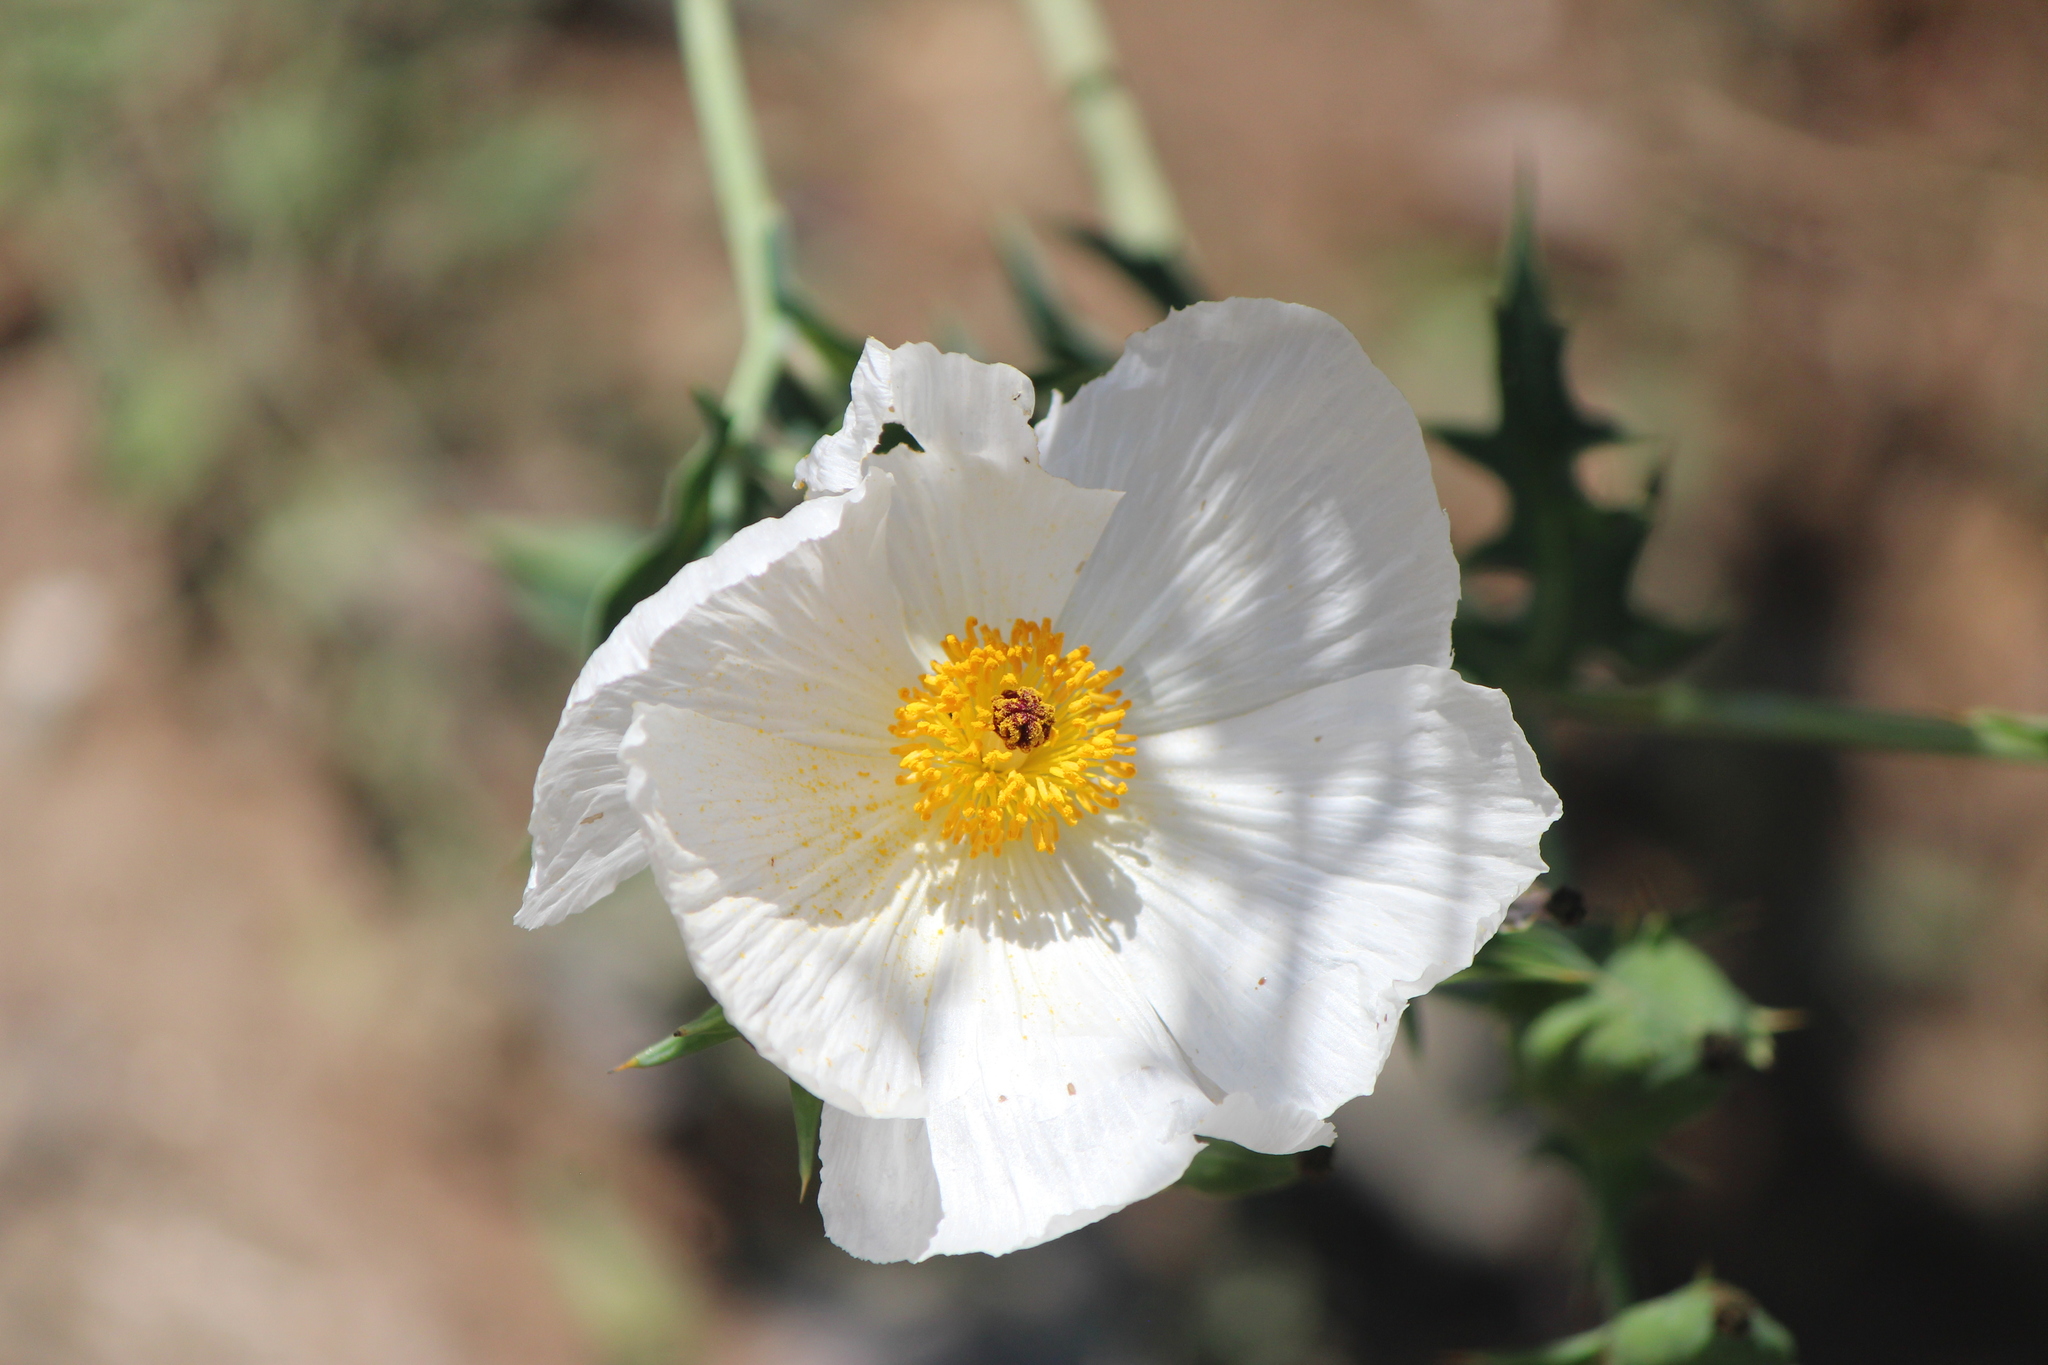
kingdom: Plantae
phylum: Tracheophyta
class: Magnoliopsida
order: Ranunculales
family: Papaveraceae
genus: Argemone
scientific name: Argemone ochroleuca
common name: White-flower mexican-poppy
